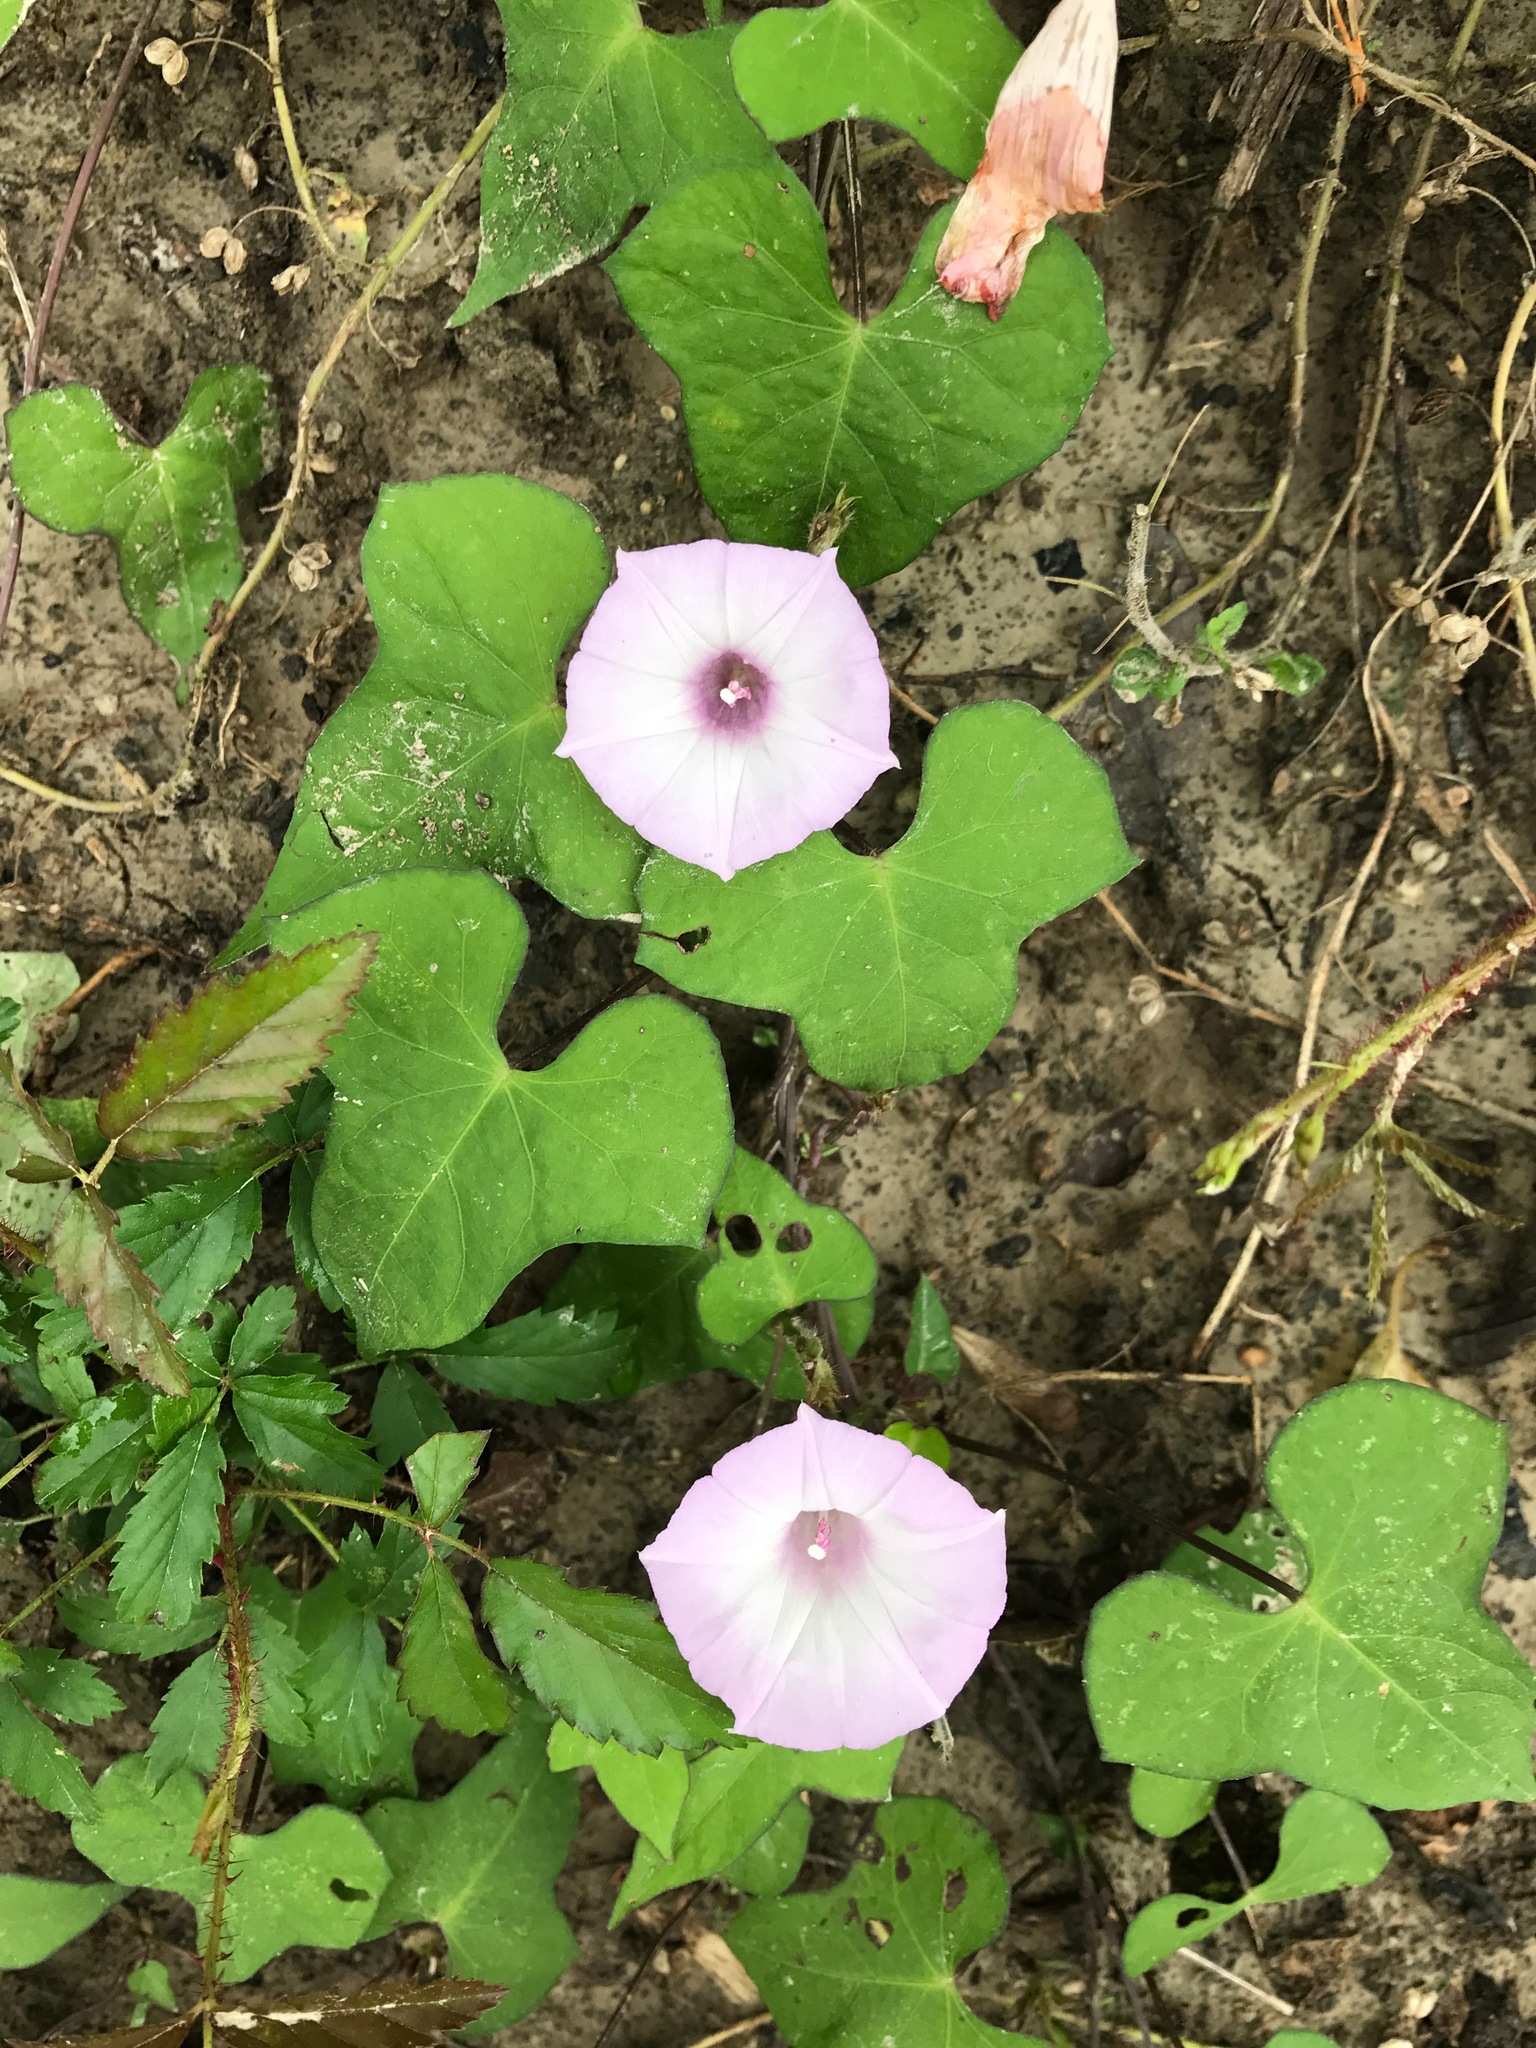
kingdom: Plantae
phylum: Tracheophyta
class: Magnoliopsida
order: Solanales
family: Convolvulaceae
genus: Ipomoea
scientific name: Ipomoea cordatotriloba
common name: Cotton morning glory
